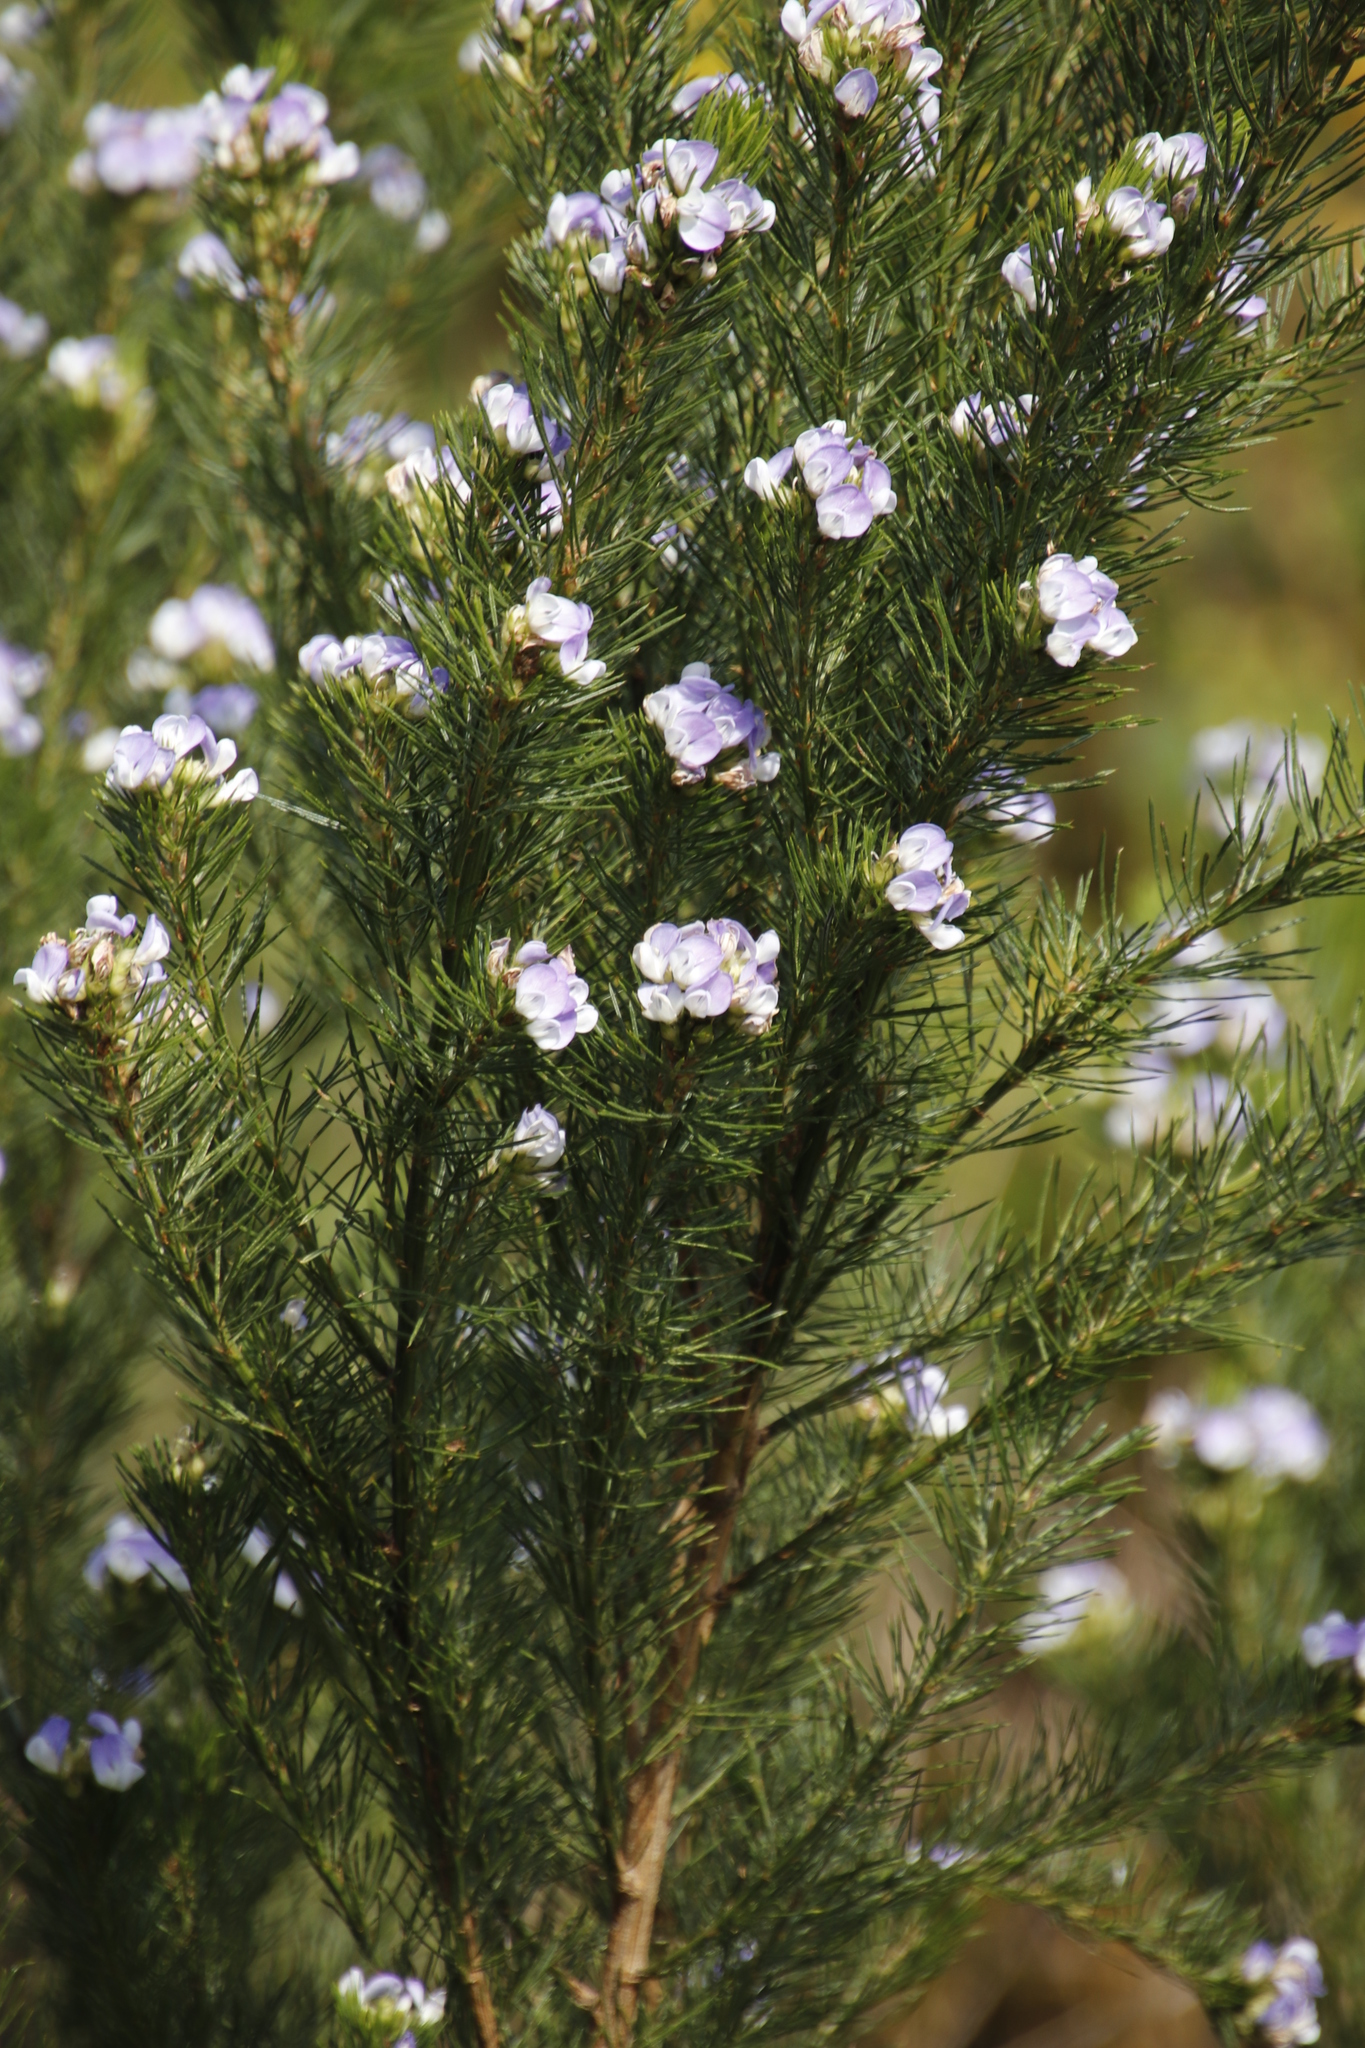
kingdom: Plantae
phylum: Tracheophyta
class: Magnoliopsida
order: Fabales
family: Fabaceae
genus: Psoralea
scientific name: Psoralea ivumba
